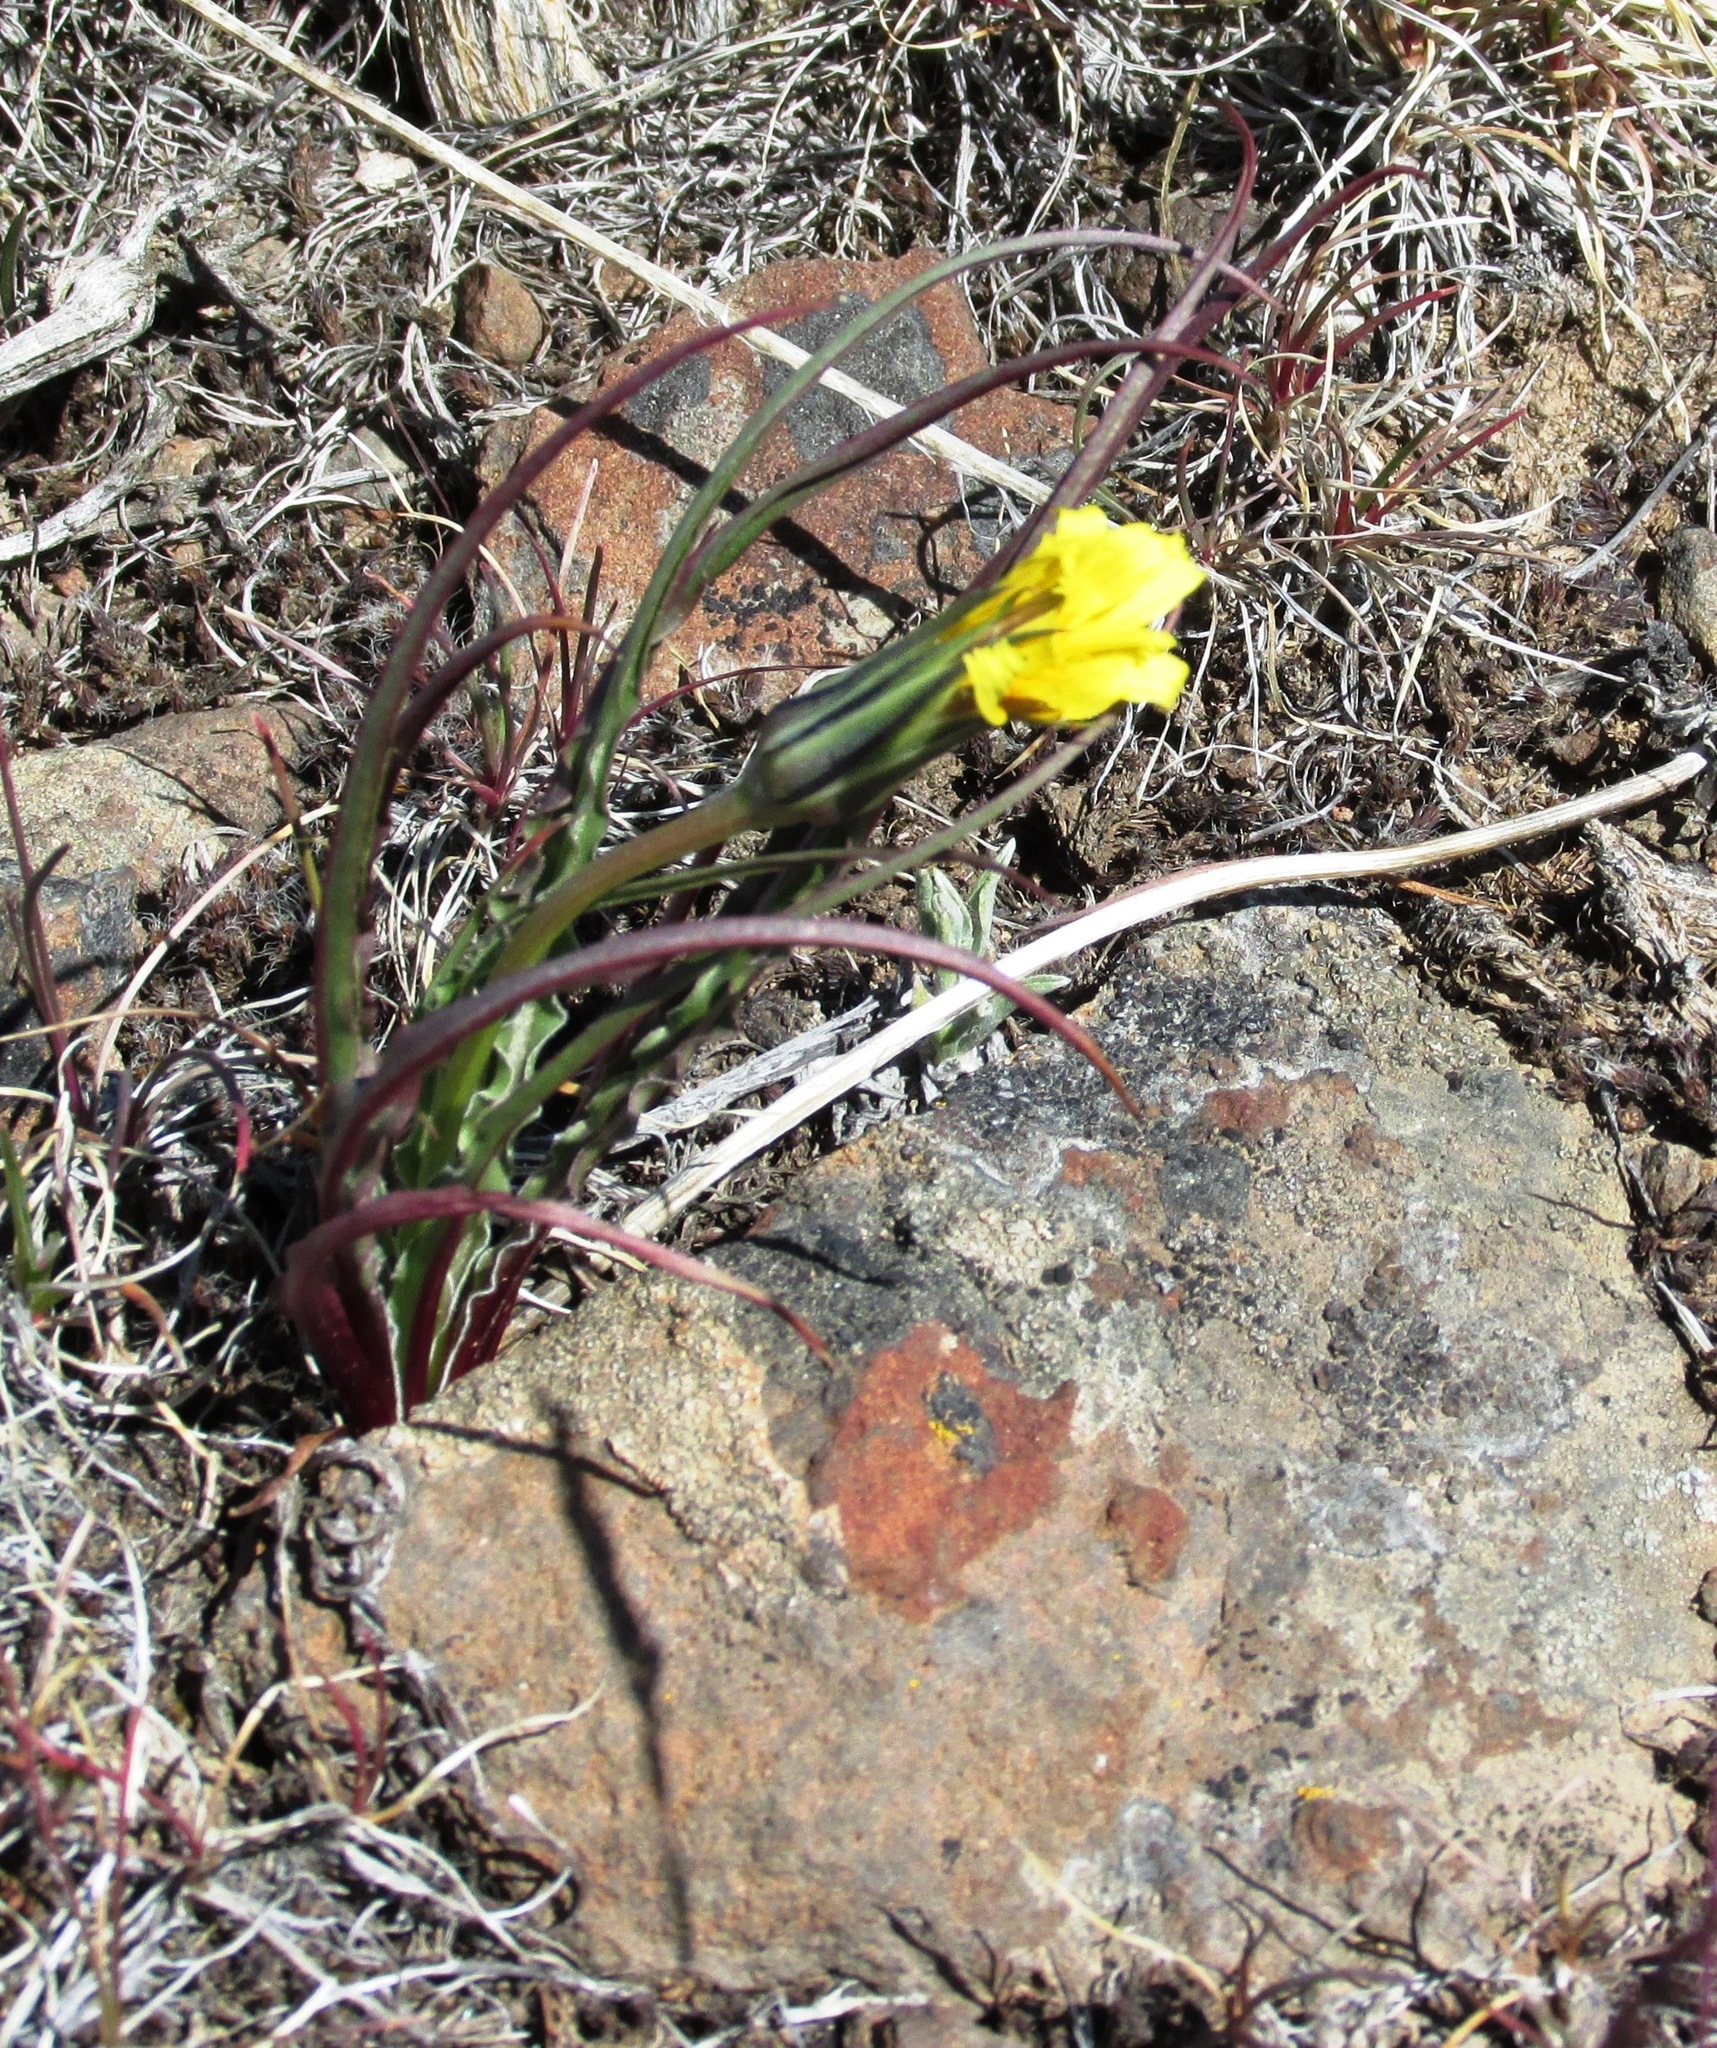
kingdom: Plantae
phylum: Tracheophyta
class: Magnoliopsida
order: Asterales
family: Asteraceae
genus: Microseris
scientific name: Microseris troximoides
